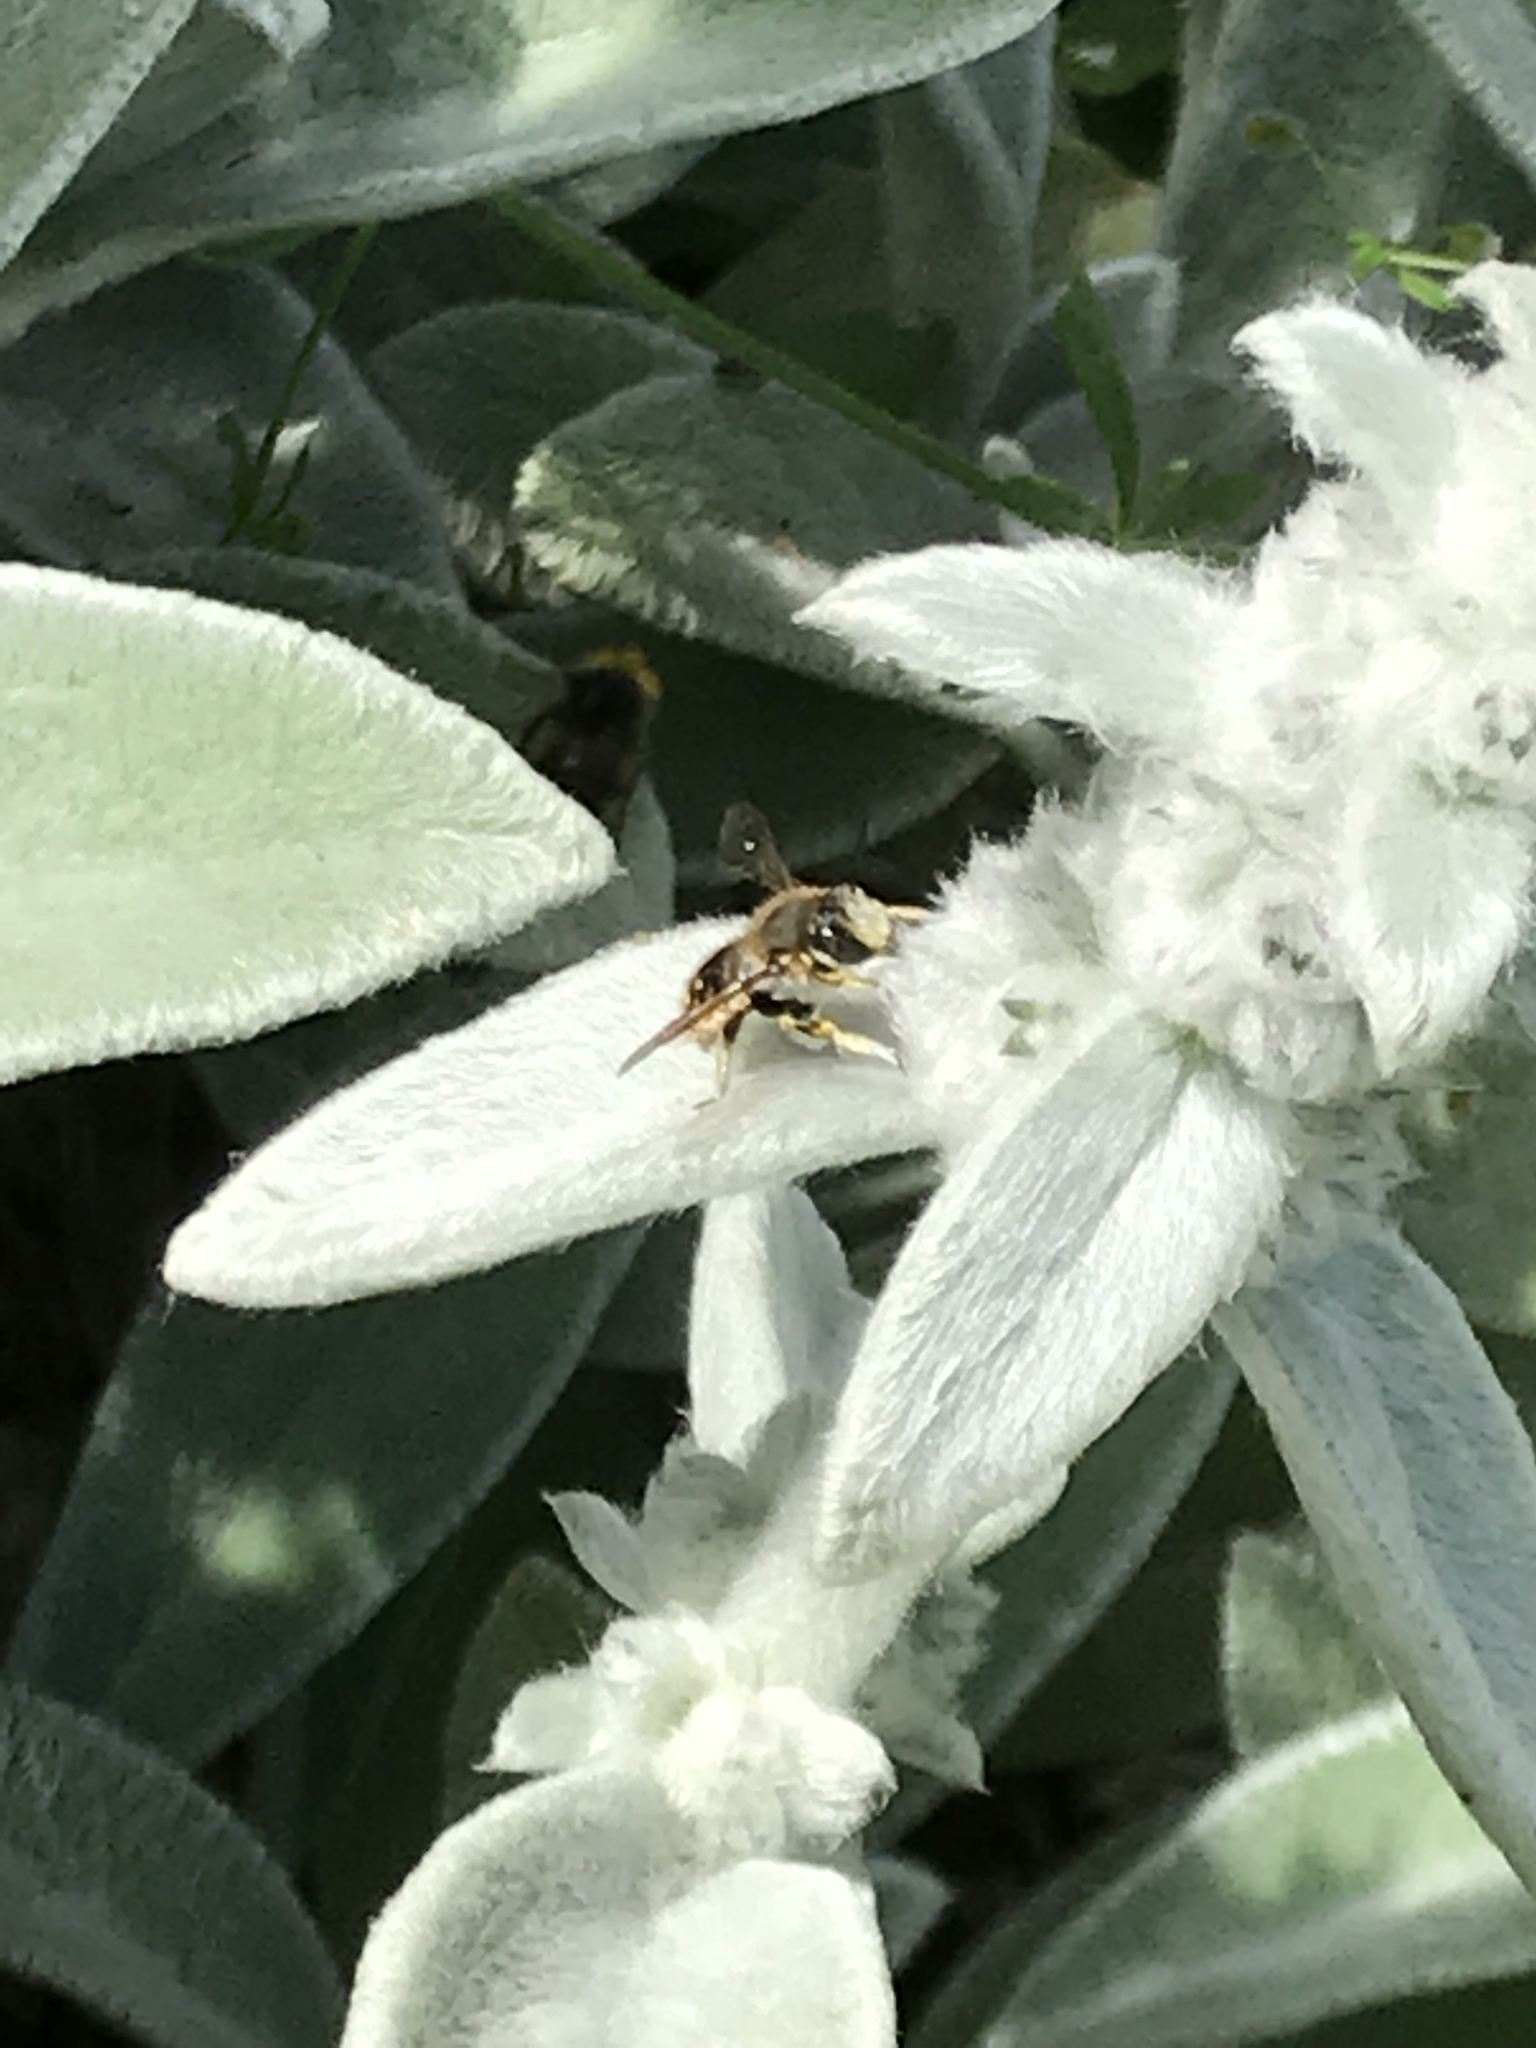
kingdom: Animalia
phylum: Arthropoda
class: Insecta
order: Hymenoptera
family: Megachilidae
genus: Anthidium
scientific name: Anthidium manicatum
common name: Wool carder bee
